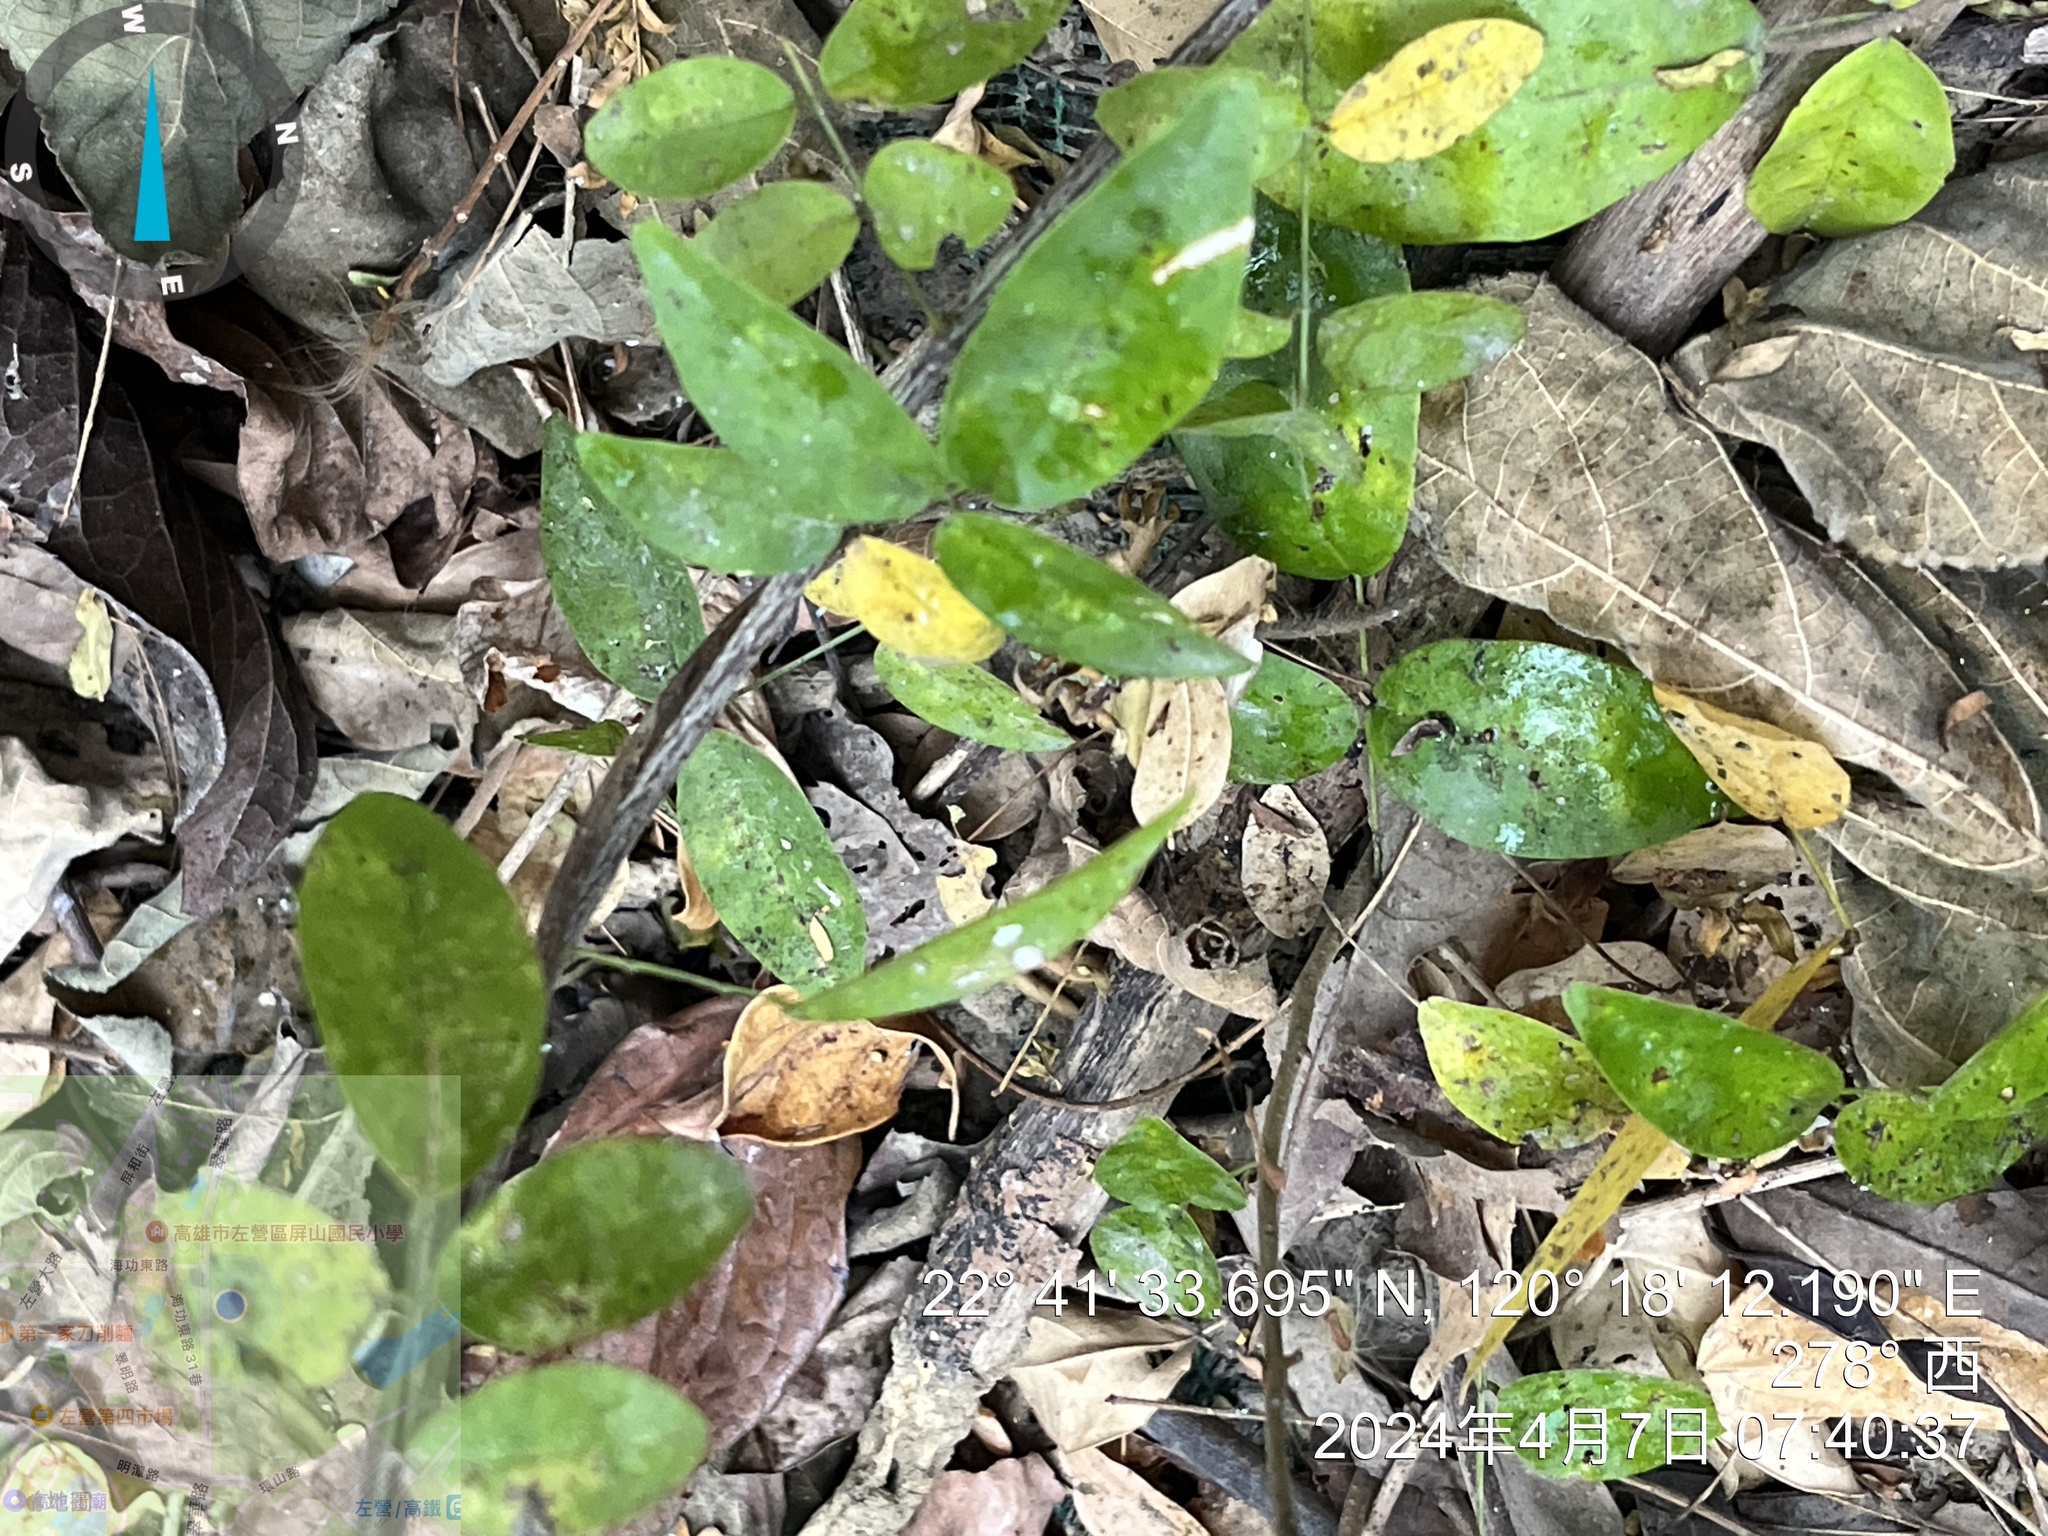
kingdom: Plantae
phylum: Tracheophyta
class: Magnoliopsida
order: Gentianales
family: Apocynaceae
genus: Gymnema
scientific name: Gymnema sylvestre
